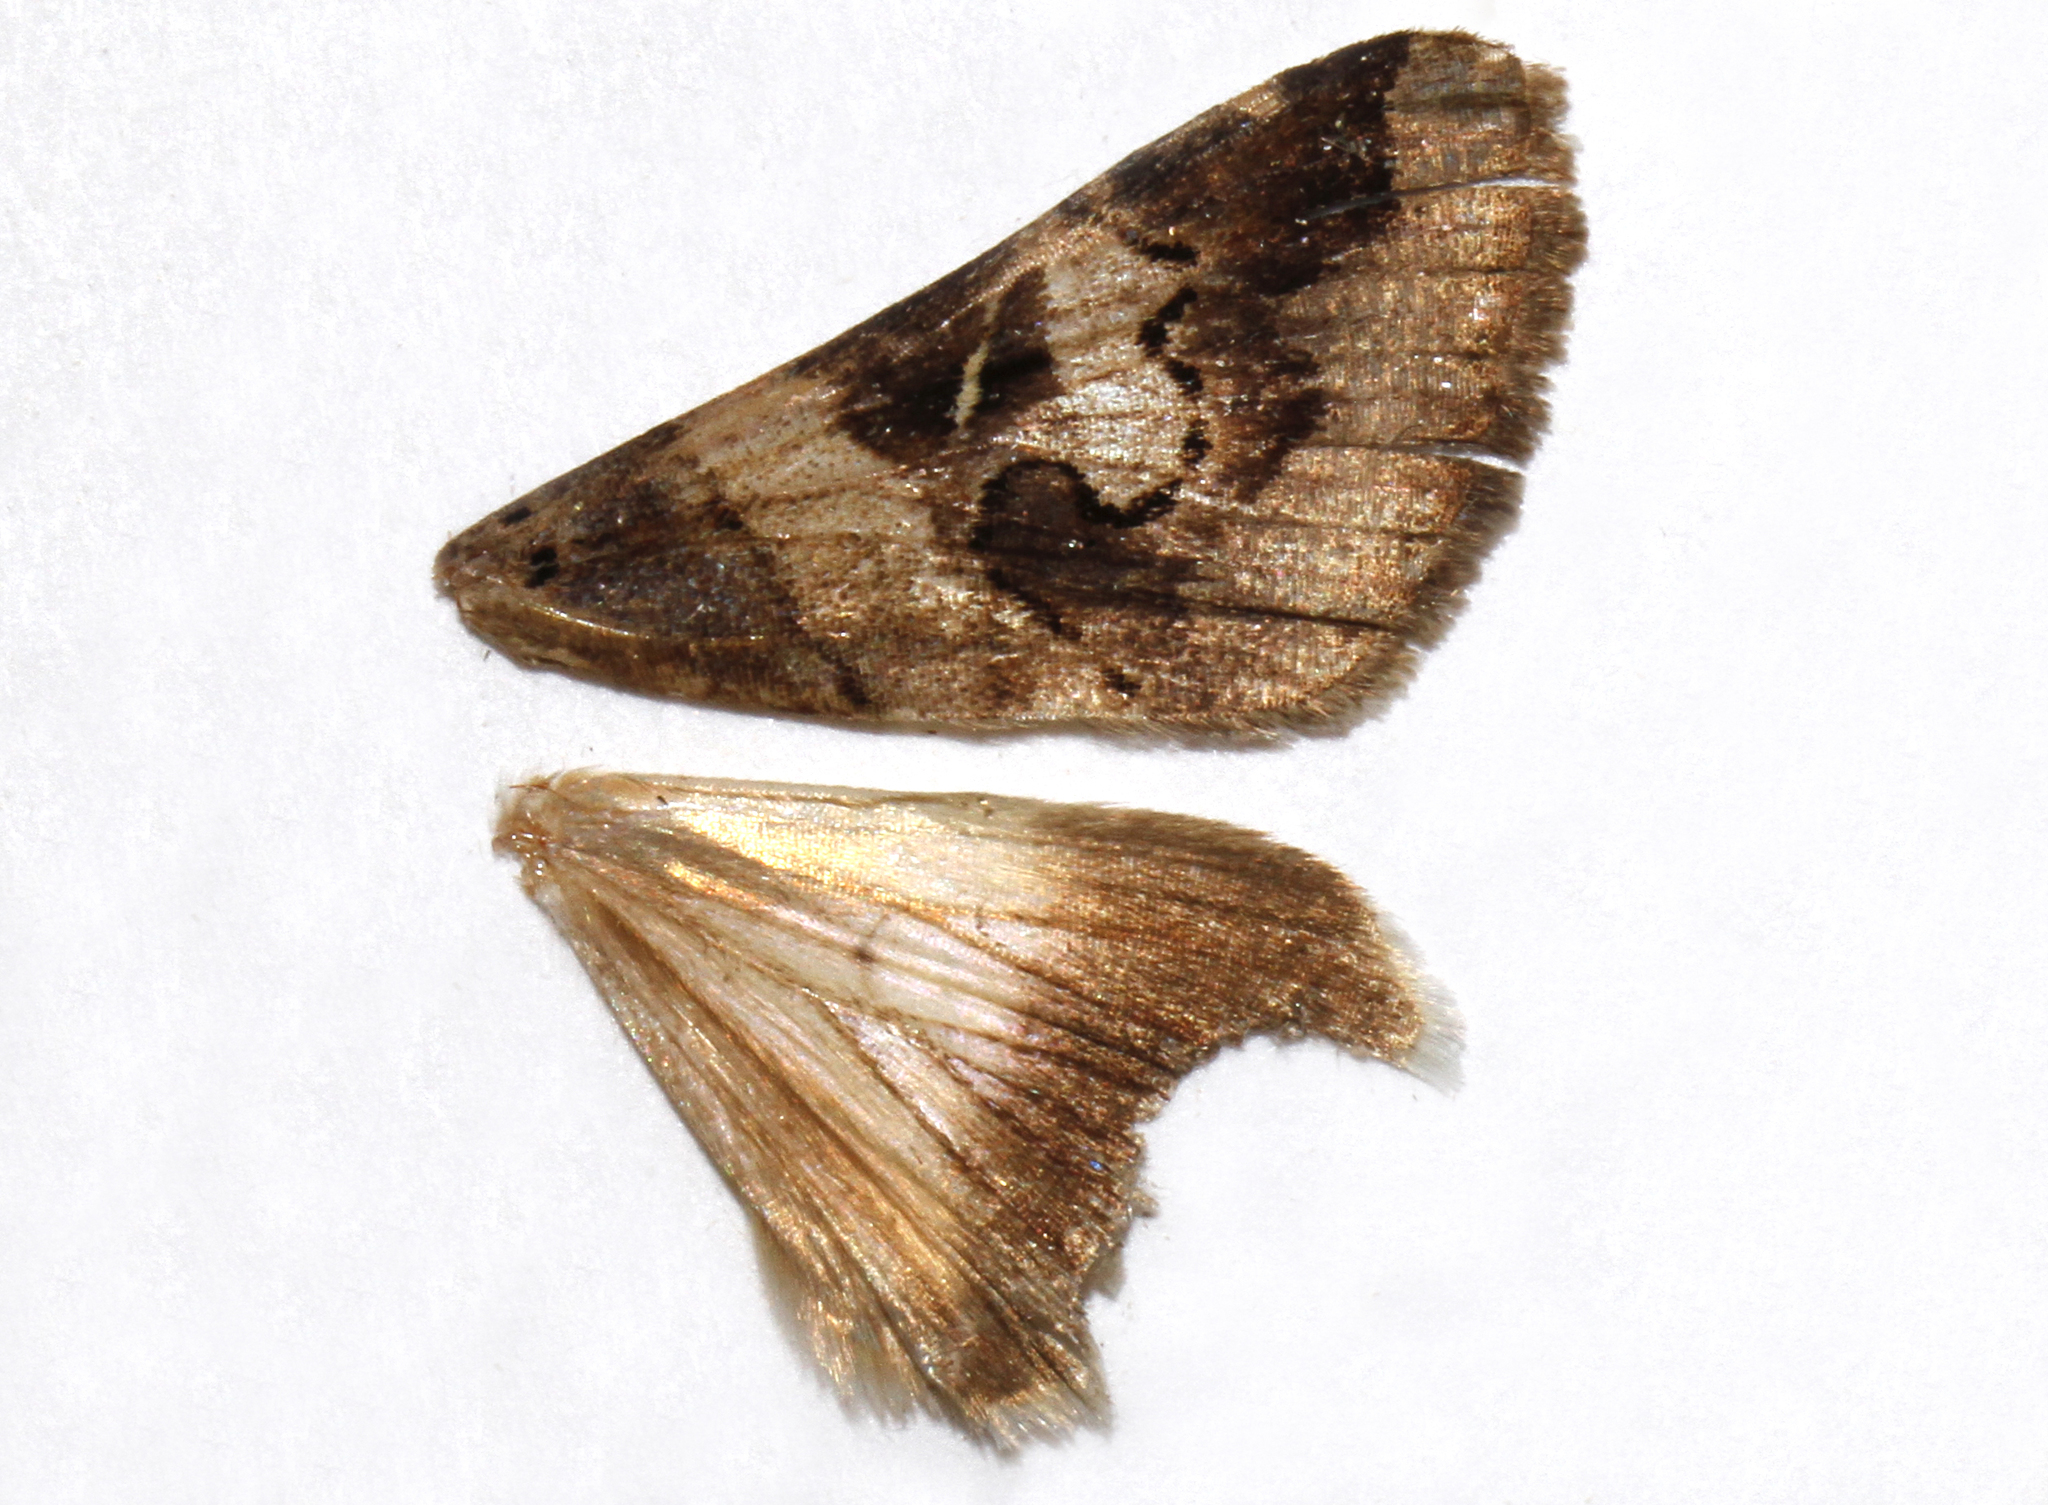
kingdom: Animalia
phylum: Arthropoda
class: Insecta
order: Lepidoptera
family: Erebidae
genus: Melipotis
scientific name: Melipotis indomita
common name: Moth
